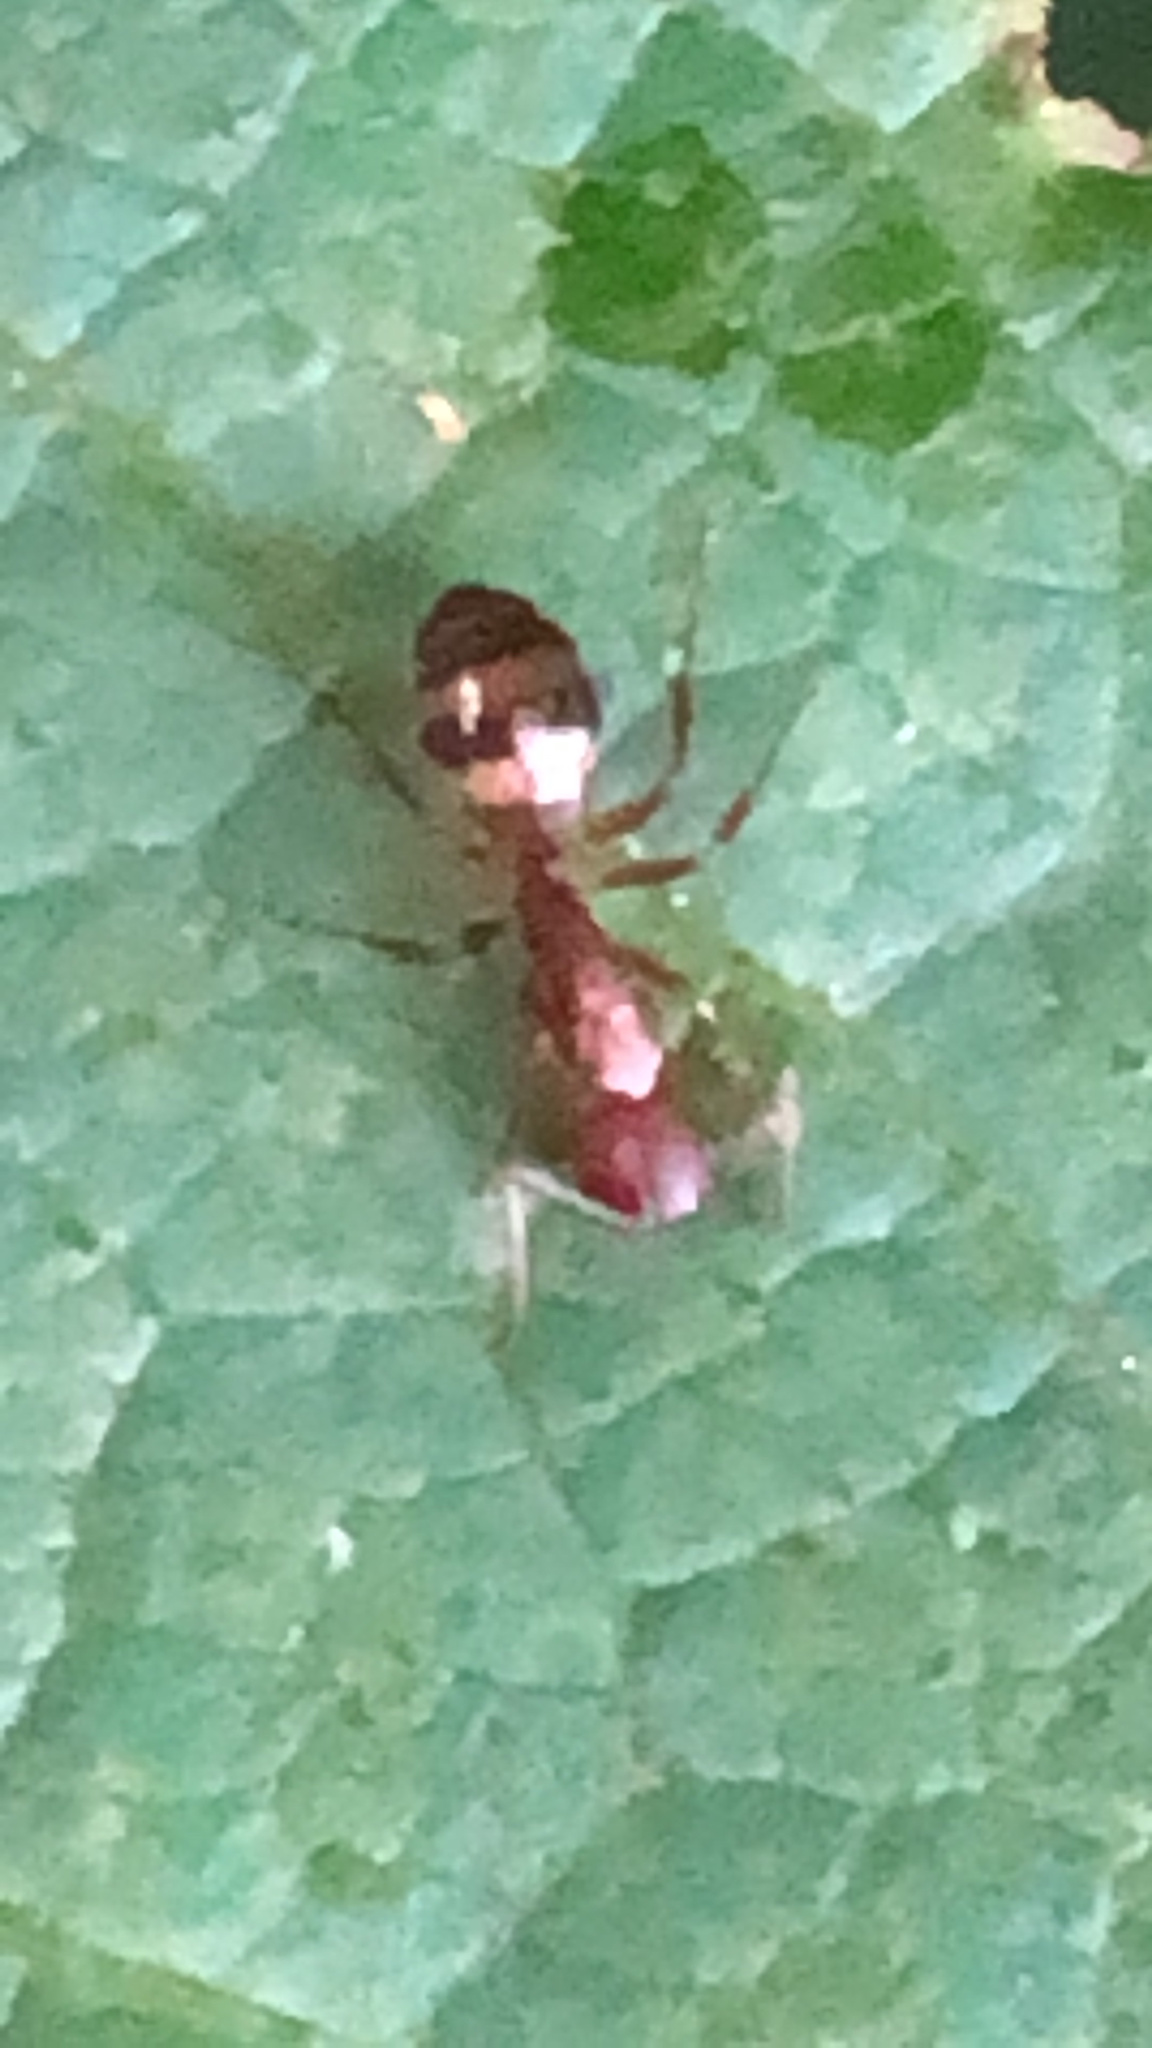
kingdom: Animalia
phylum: Arthropoda
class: Insecta
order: Hymenoptera
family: Formicidae
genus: Camponotus
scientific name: Camponotus subbarbatus
